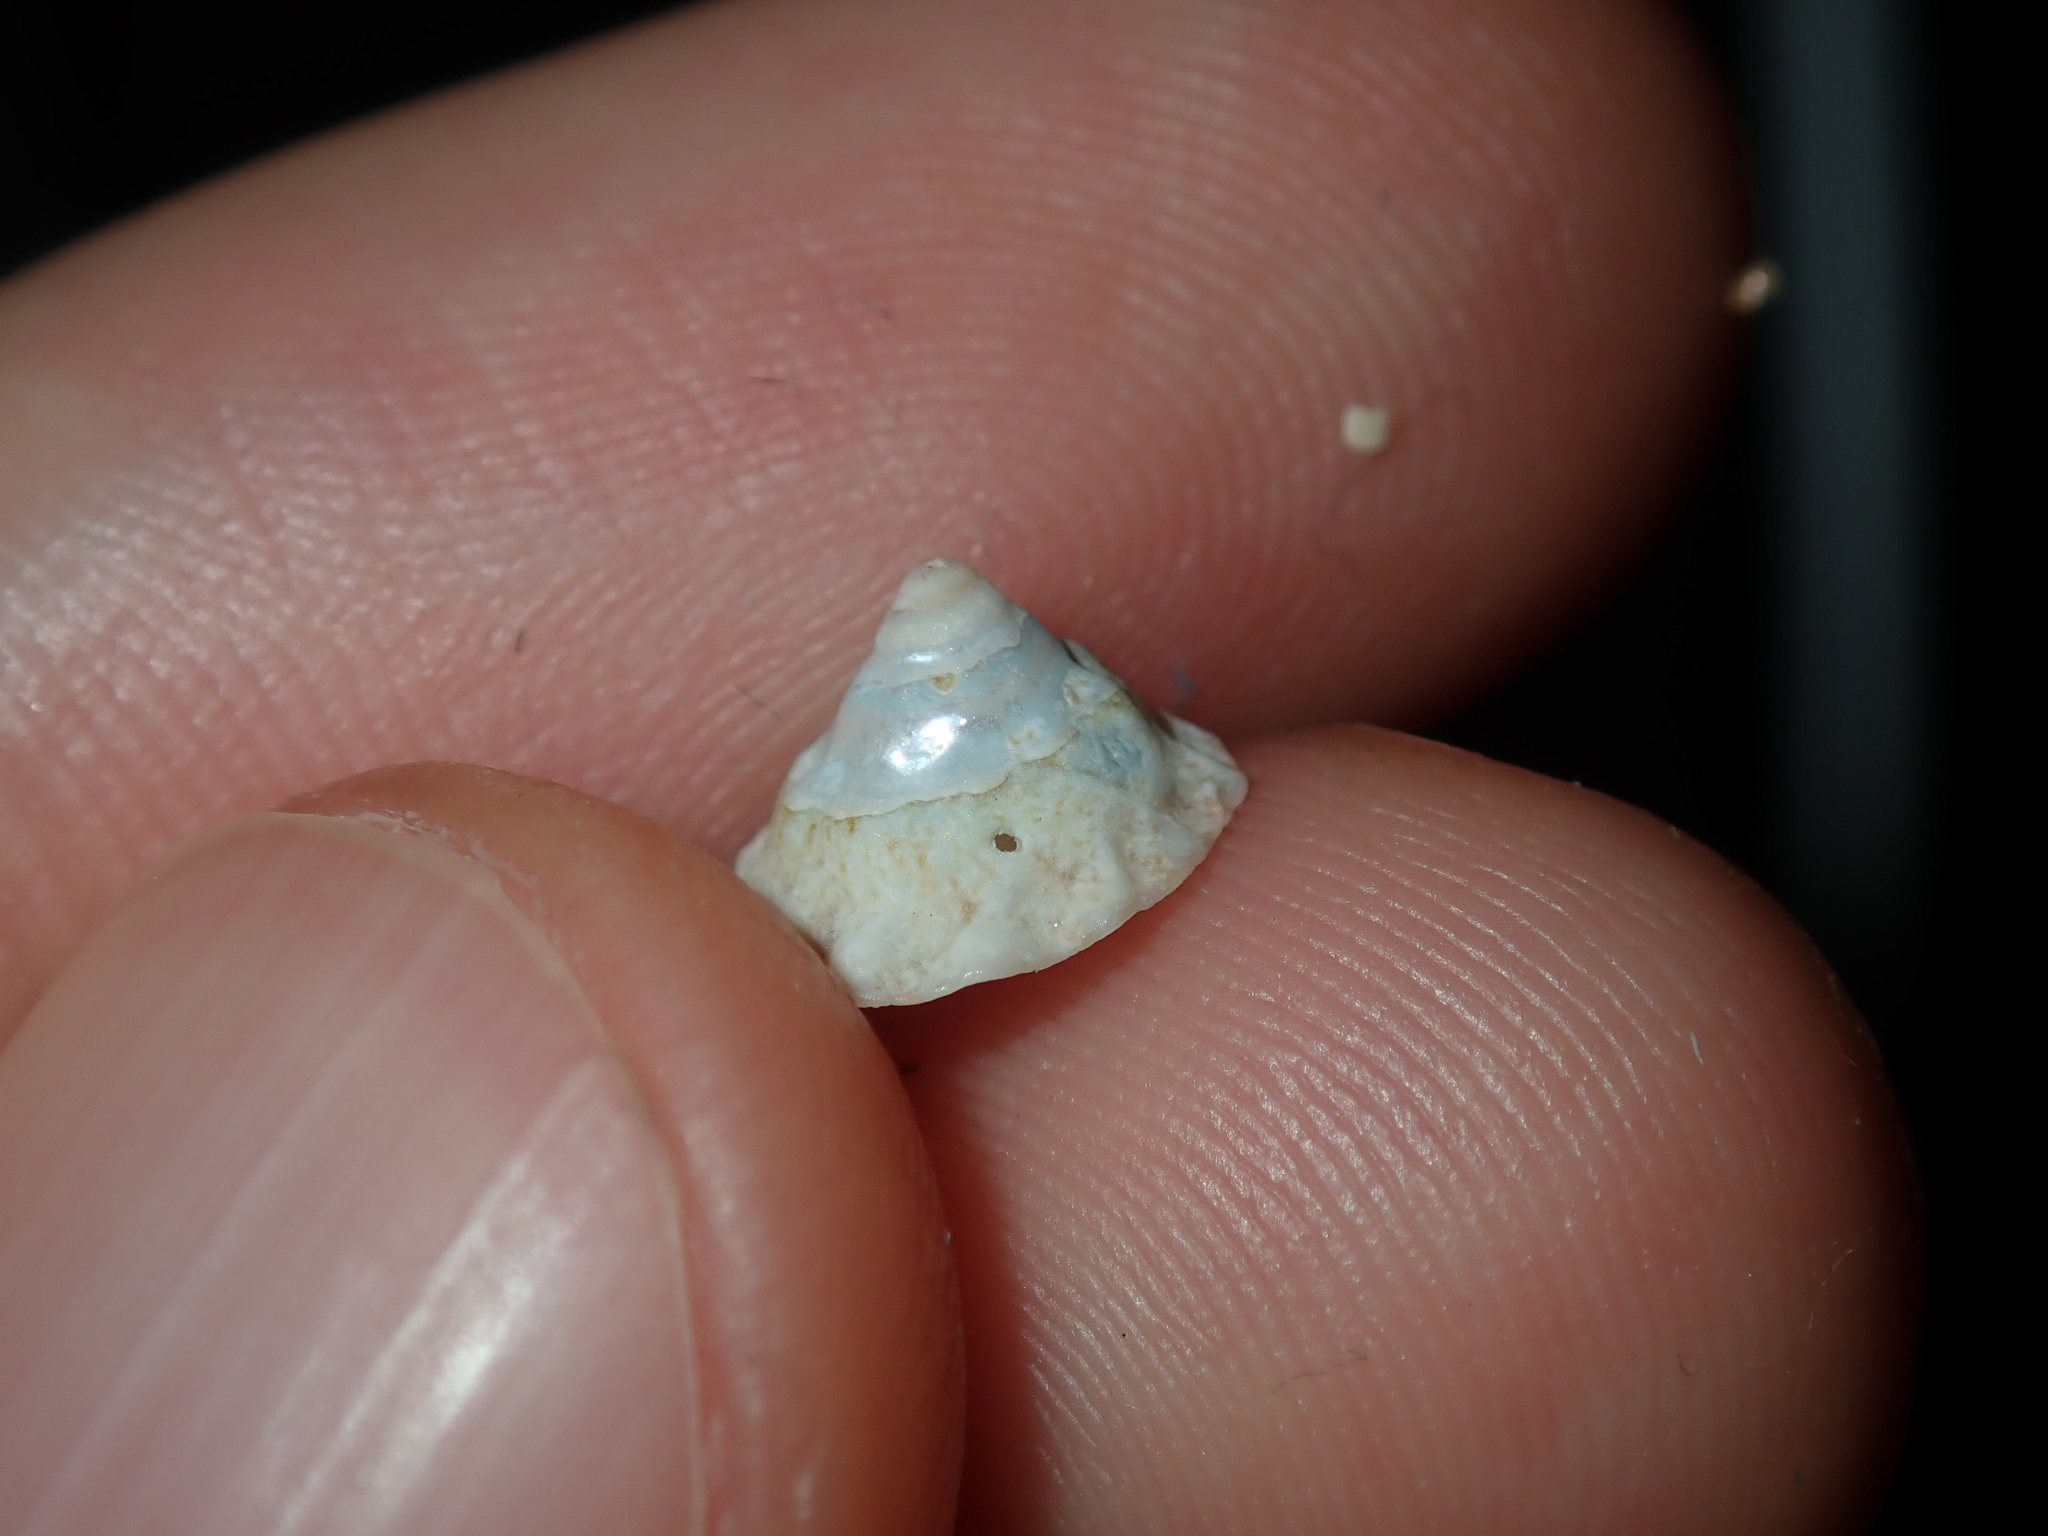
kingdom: Animalia
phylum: Mollusca
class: Gastropoda
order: Trochida
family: Turbinidae
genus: Bellastraea
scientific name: Bellastraea squamifera
